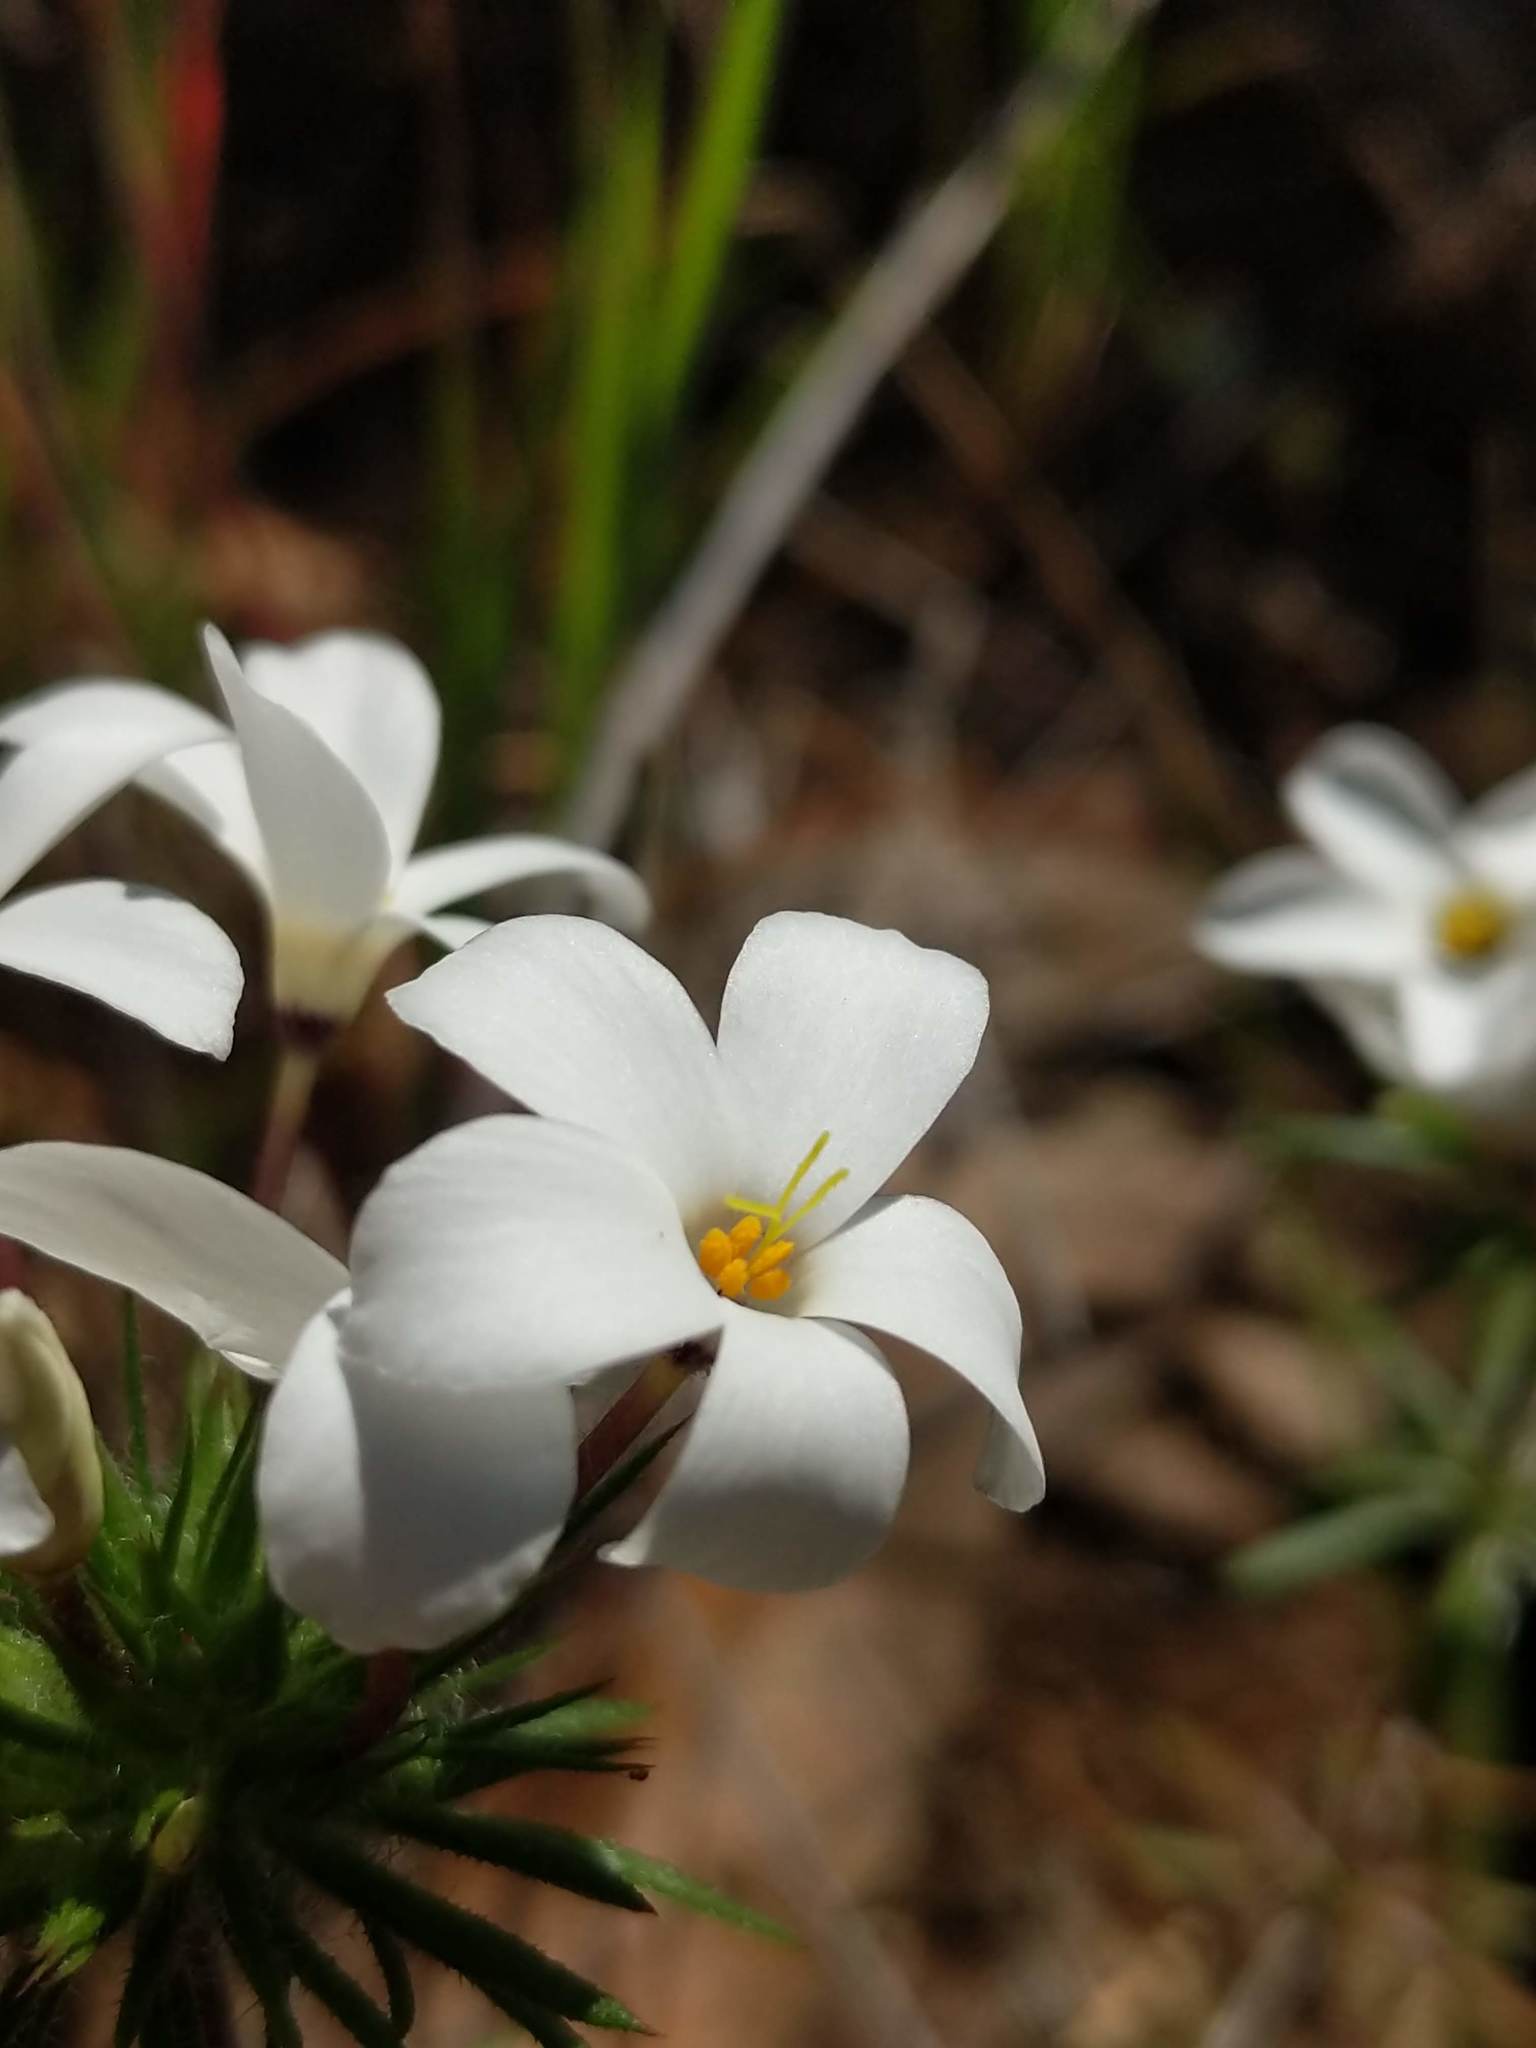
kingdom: Plantae
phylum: Tracheophyta
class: Magnoliopsida
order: Ericales
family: Polemoniaceae
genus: Leptosiphon
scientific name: Leptosiphon androsaceus
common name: False babystars
